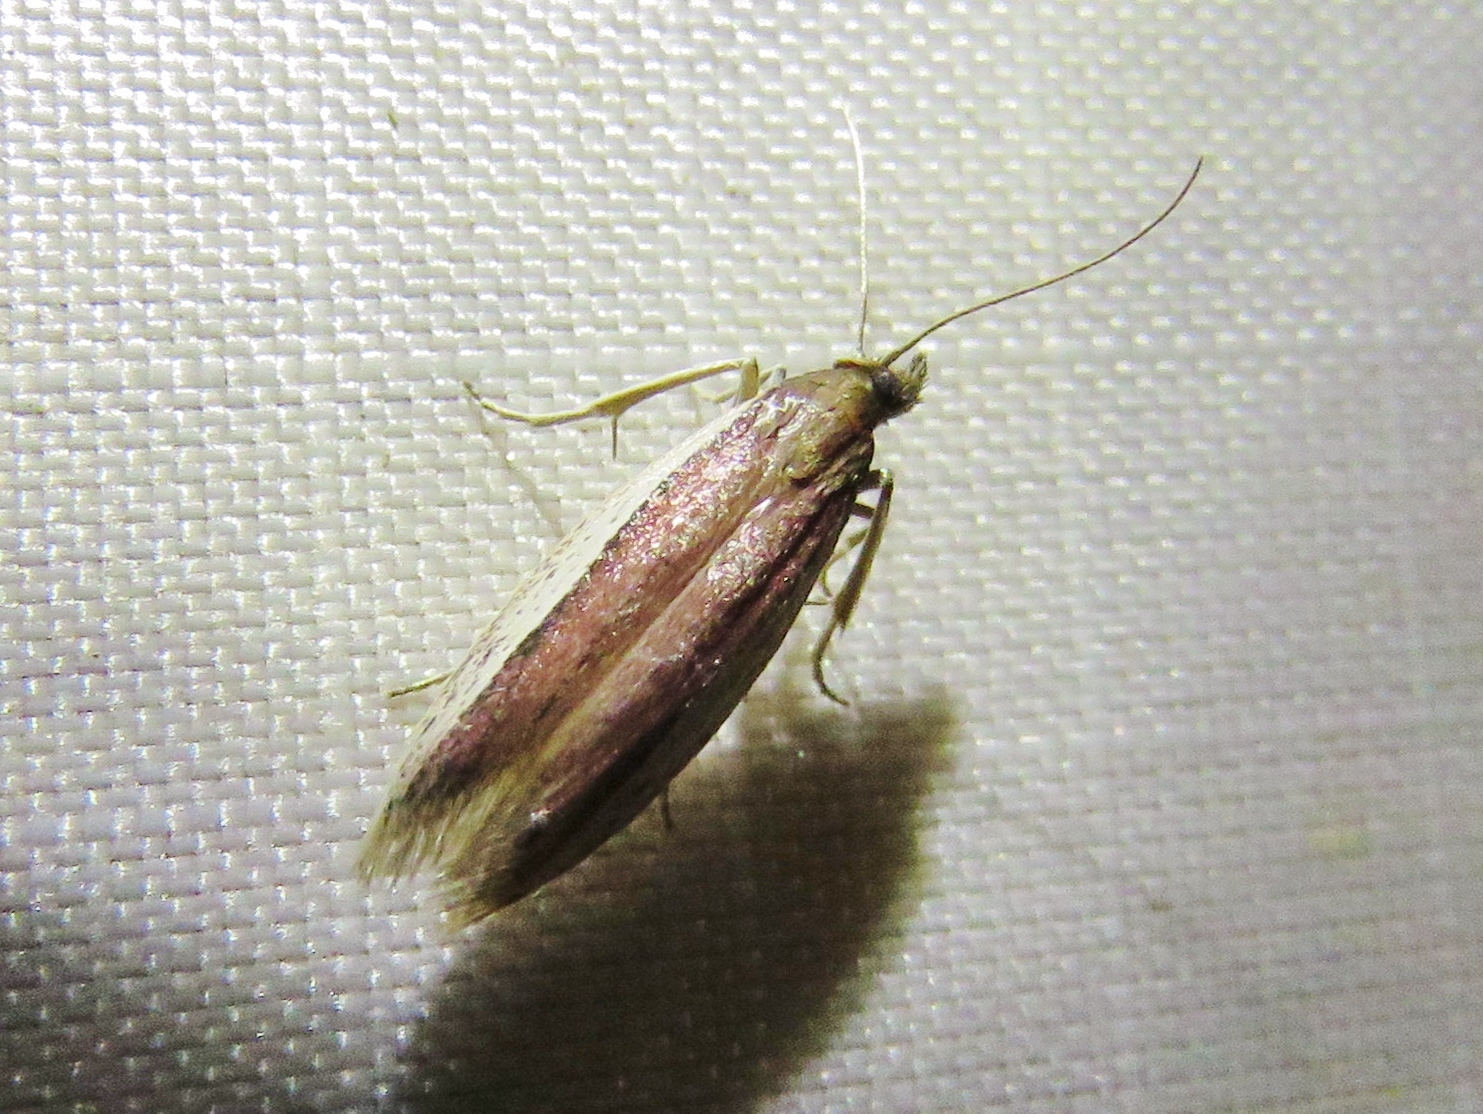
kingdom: Animalia
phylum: Arthropoda
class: Insecta
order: Lepidoptera
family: Pyralidae
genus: Tampa
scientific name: Tampa dimediatella
